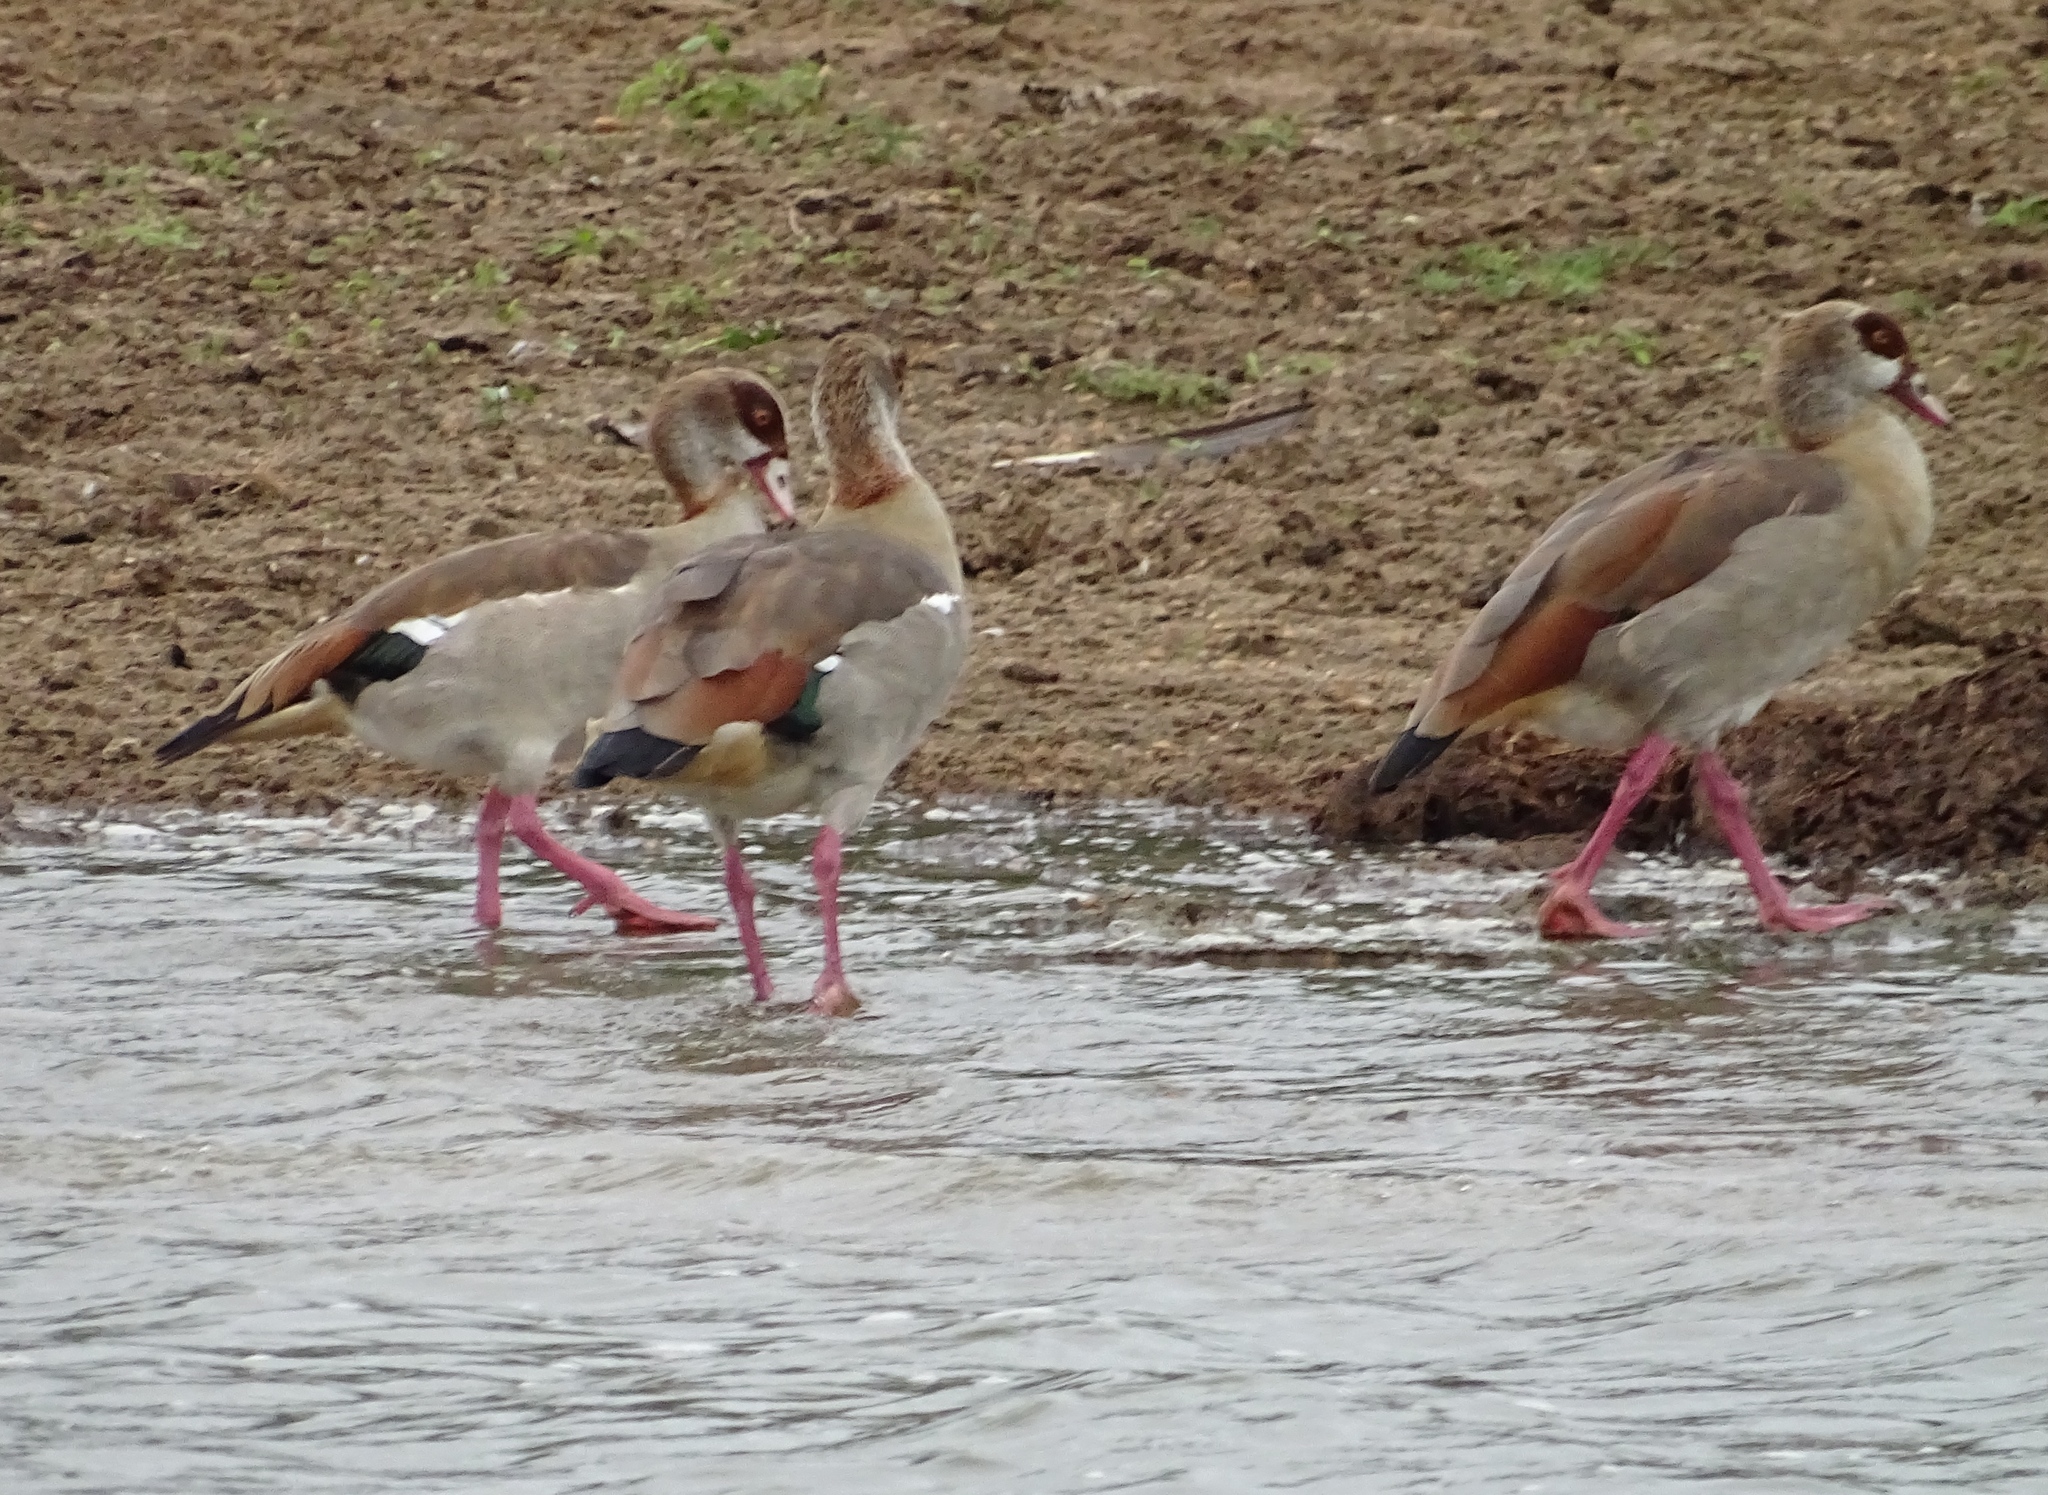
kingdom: Animalia
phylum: Chordata
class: Aves
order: Anseriformes
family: Anatidae
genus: Alopochen
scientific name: Alopochen aegyptiaca
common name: Egyptian goose
